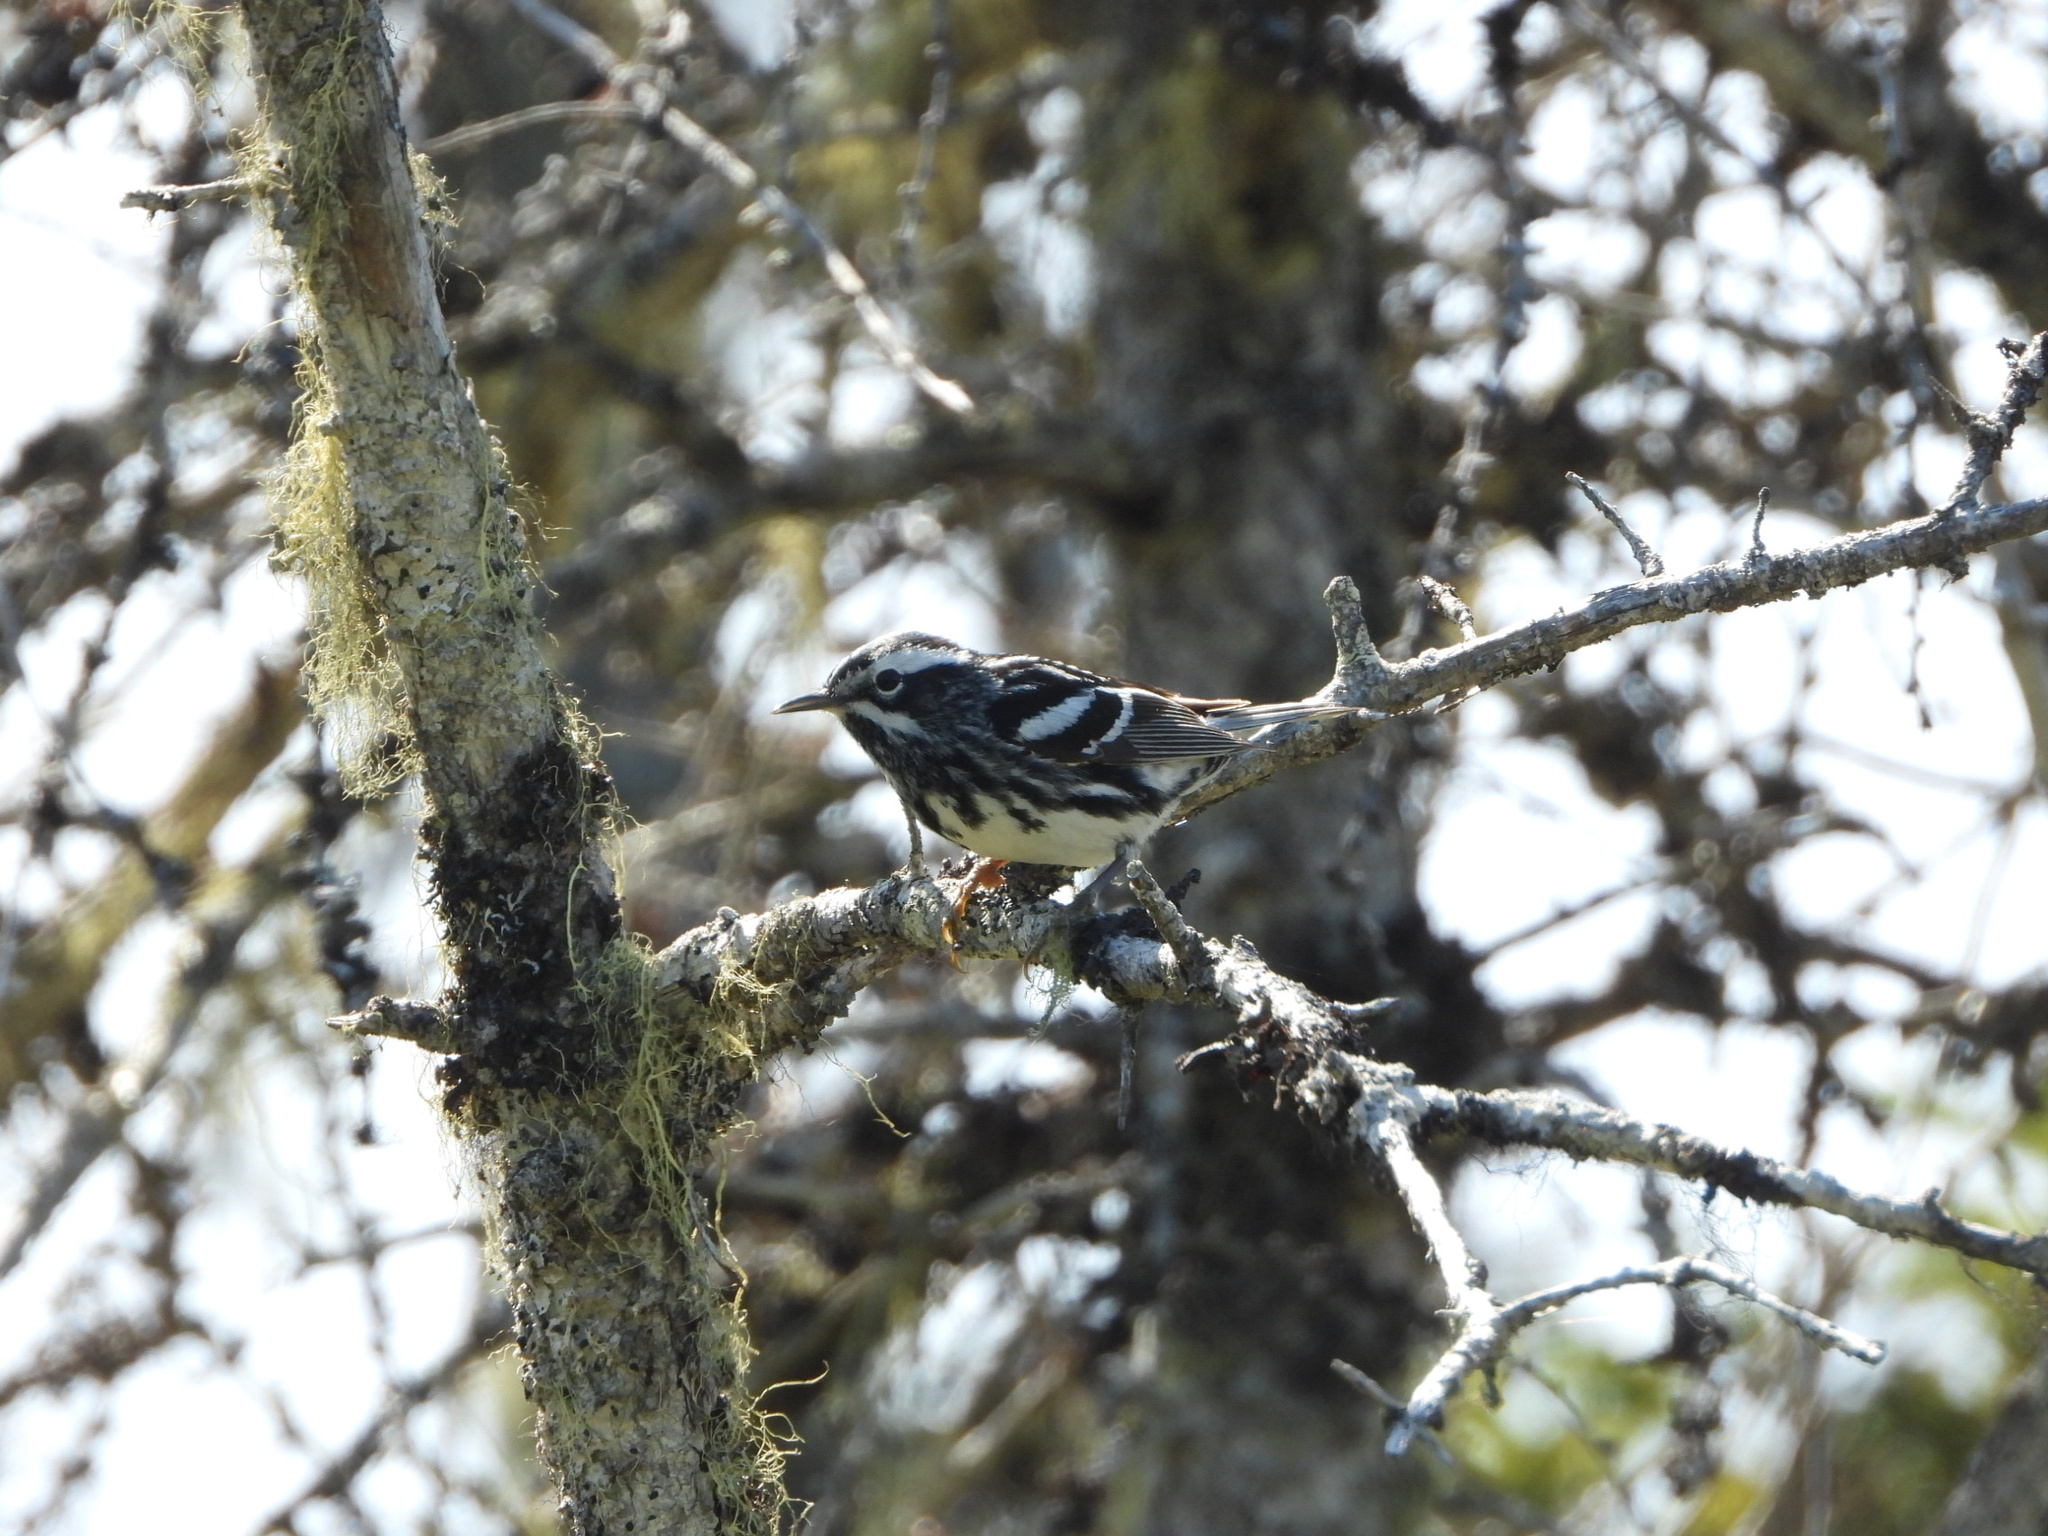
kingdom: Animalia
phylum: Chordata
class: Aves
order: Passeriformes
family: Parulidae
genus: Mniotilta
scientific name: Mniotilta varia
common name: Black-and-white warbler
